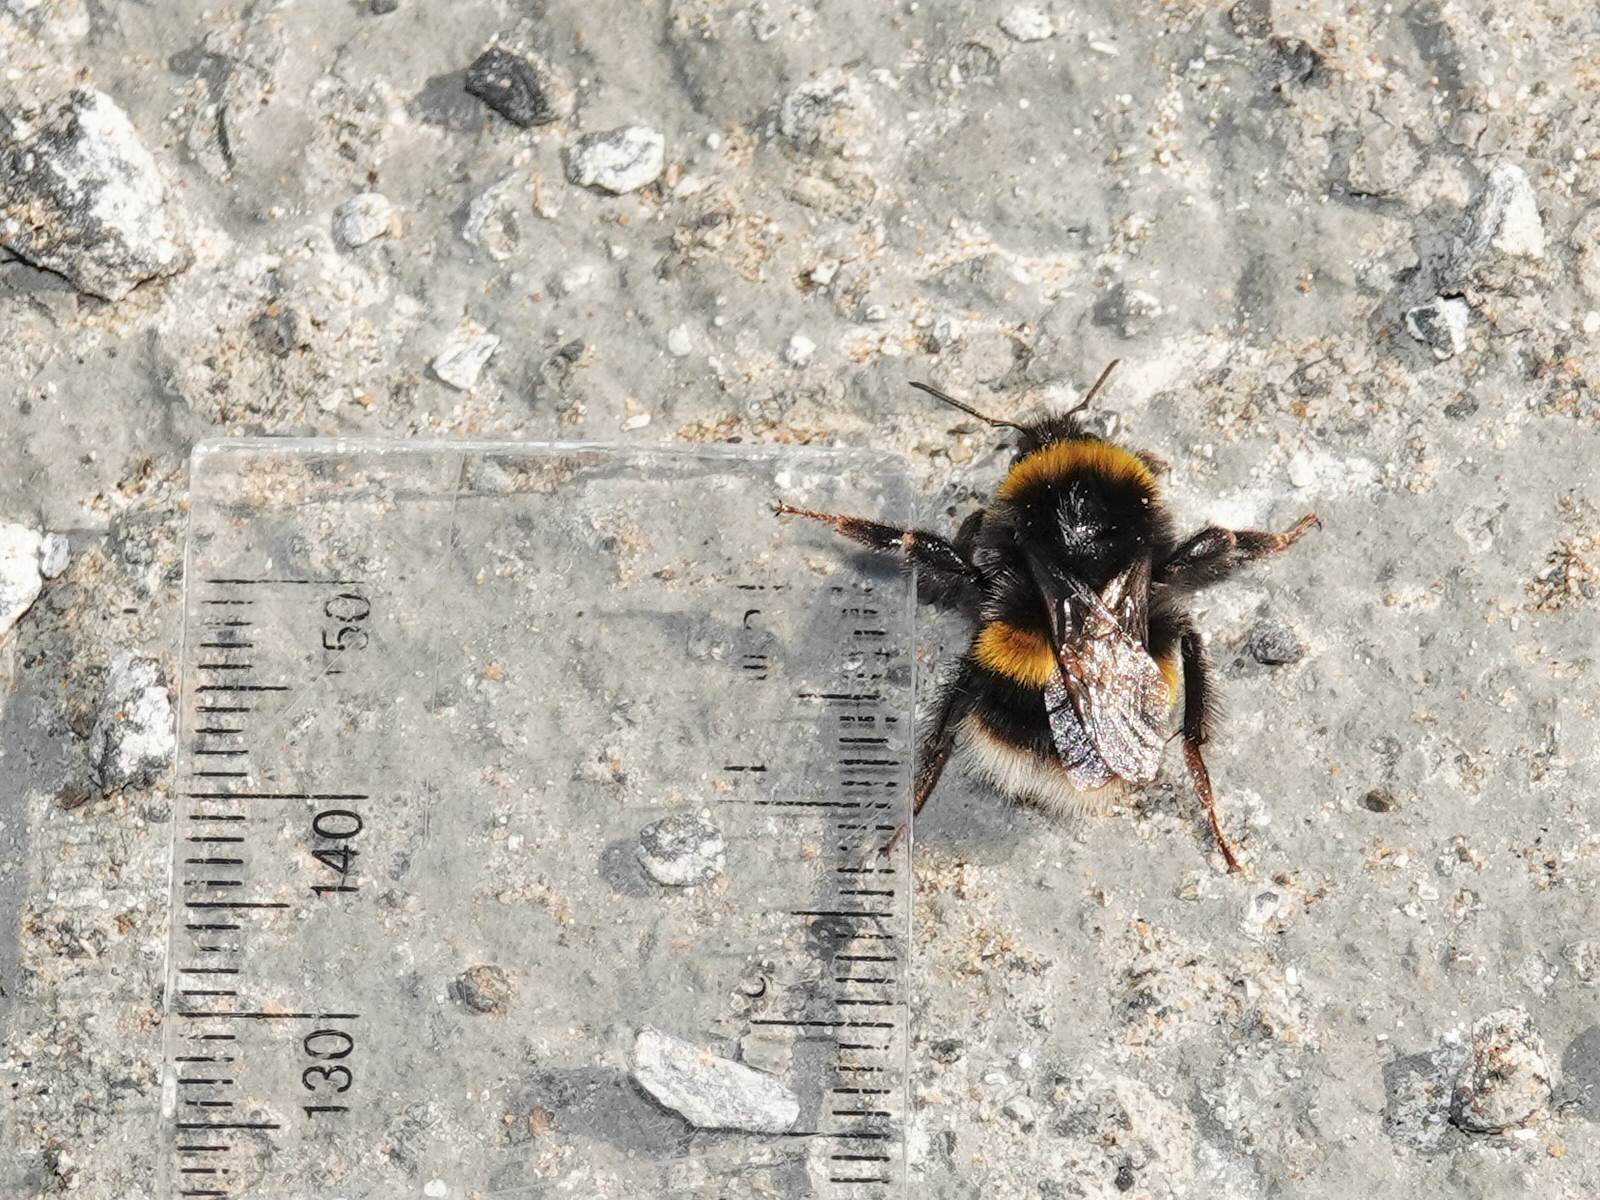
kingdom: Animalia
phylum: Arthropoda
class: Insecta
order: Hymenoptera
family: Apidae
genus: Bombus
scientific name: Bombus terrestris
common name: Buff-tailed bumblebee
